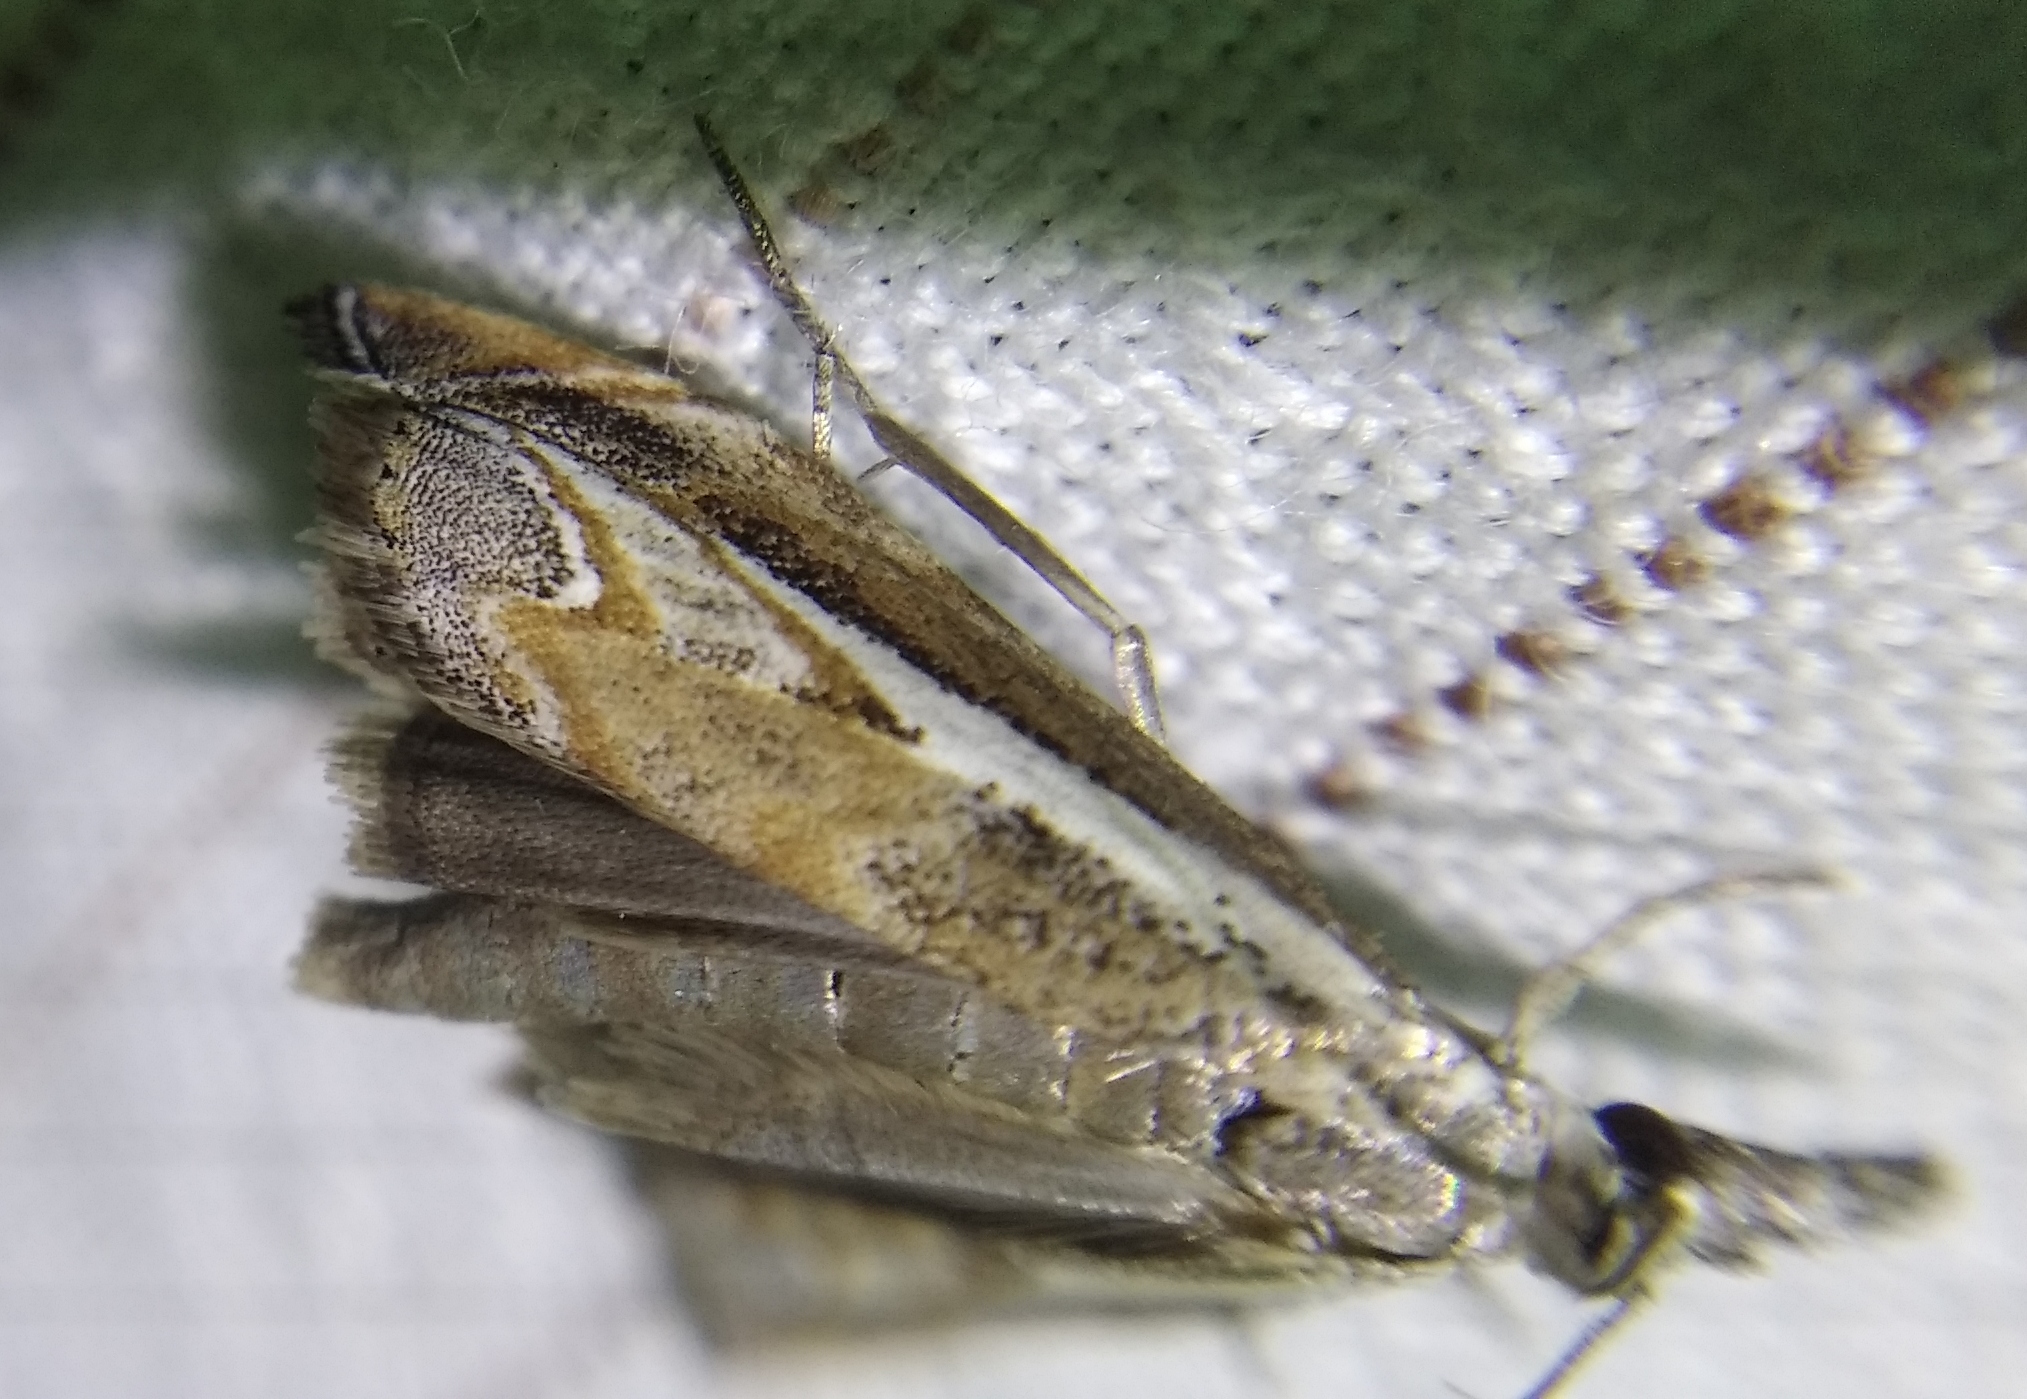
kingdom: Animalia
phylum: Arthropoda
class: Insecta
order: Lepidoptera
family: Crambidae
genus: Platytes
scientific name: Platytes alpinella
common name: Hook-tipped grass-veneer
